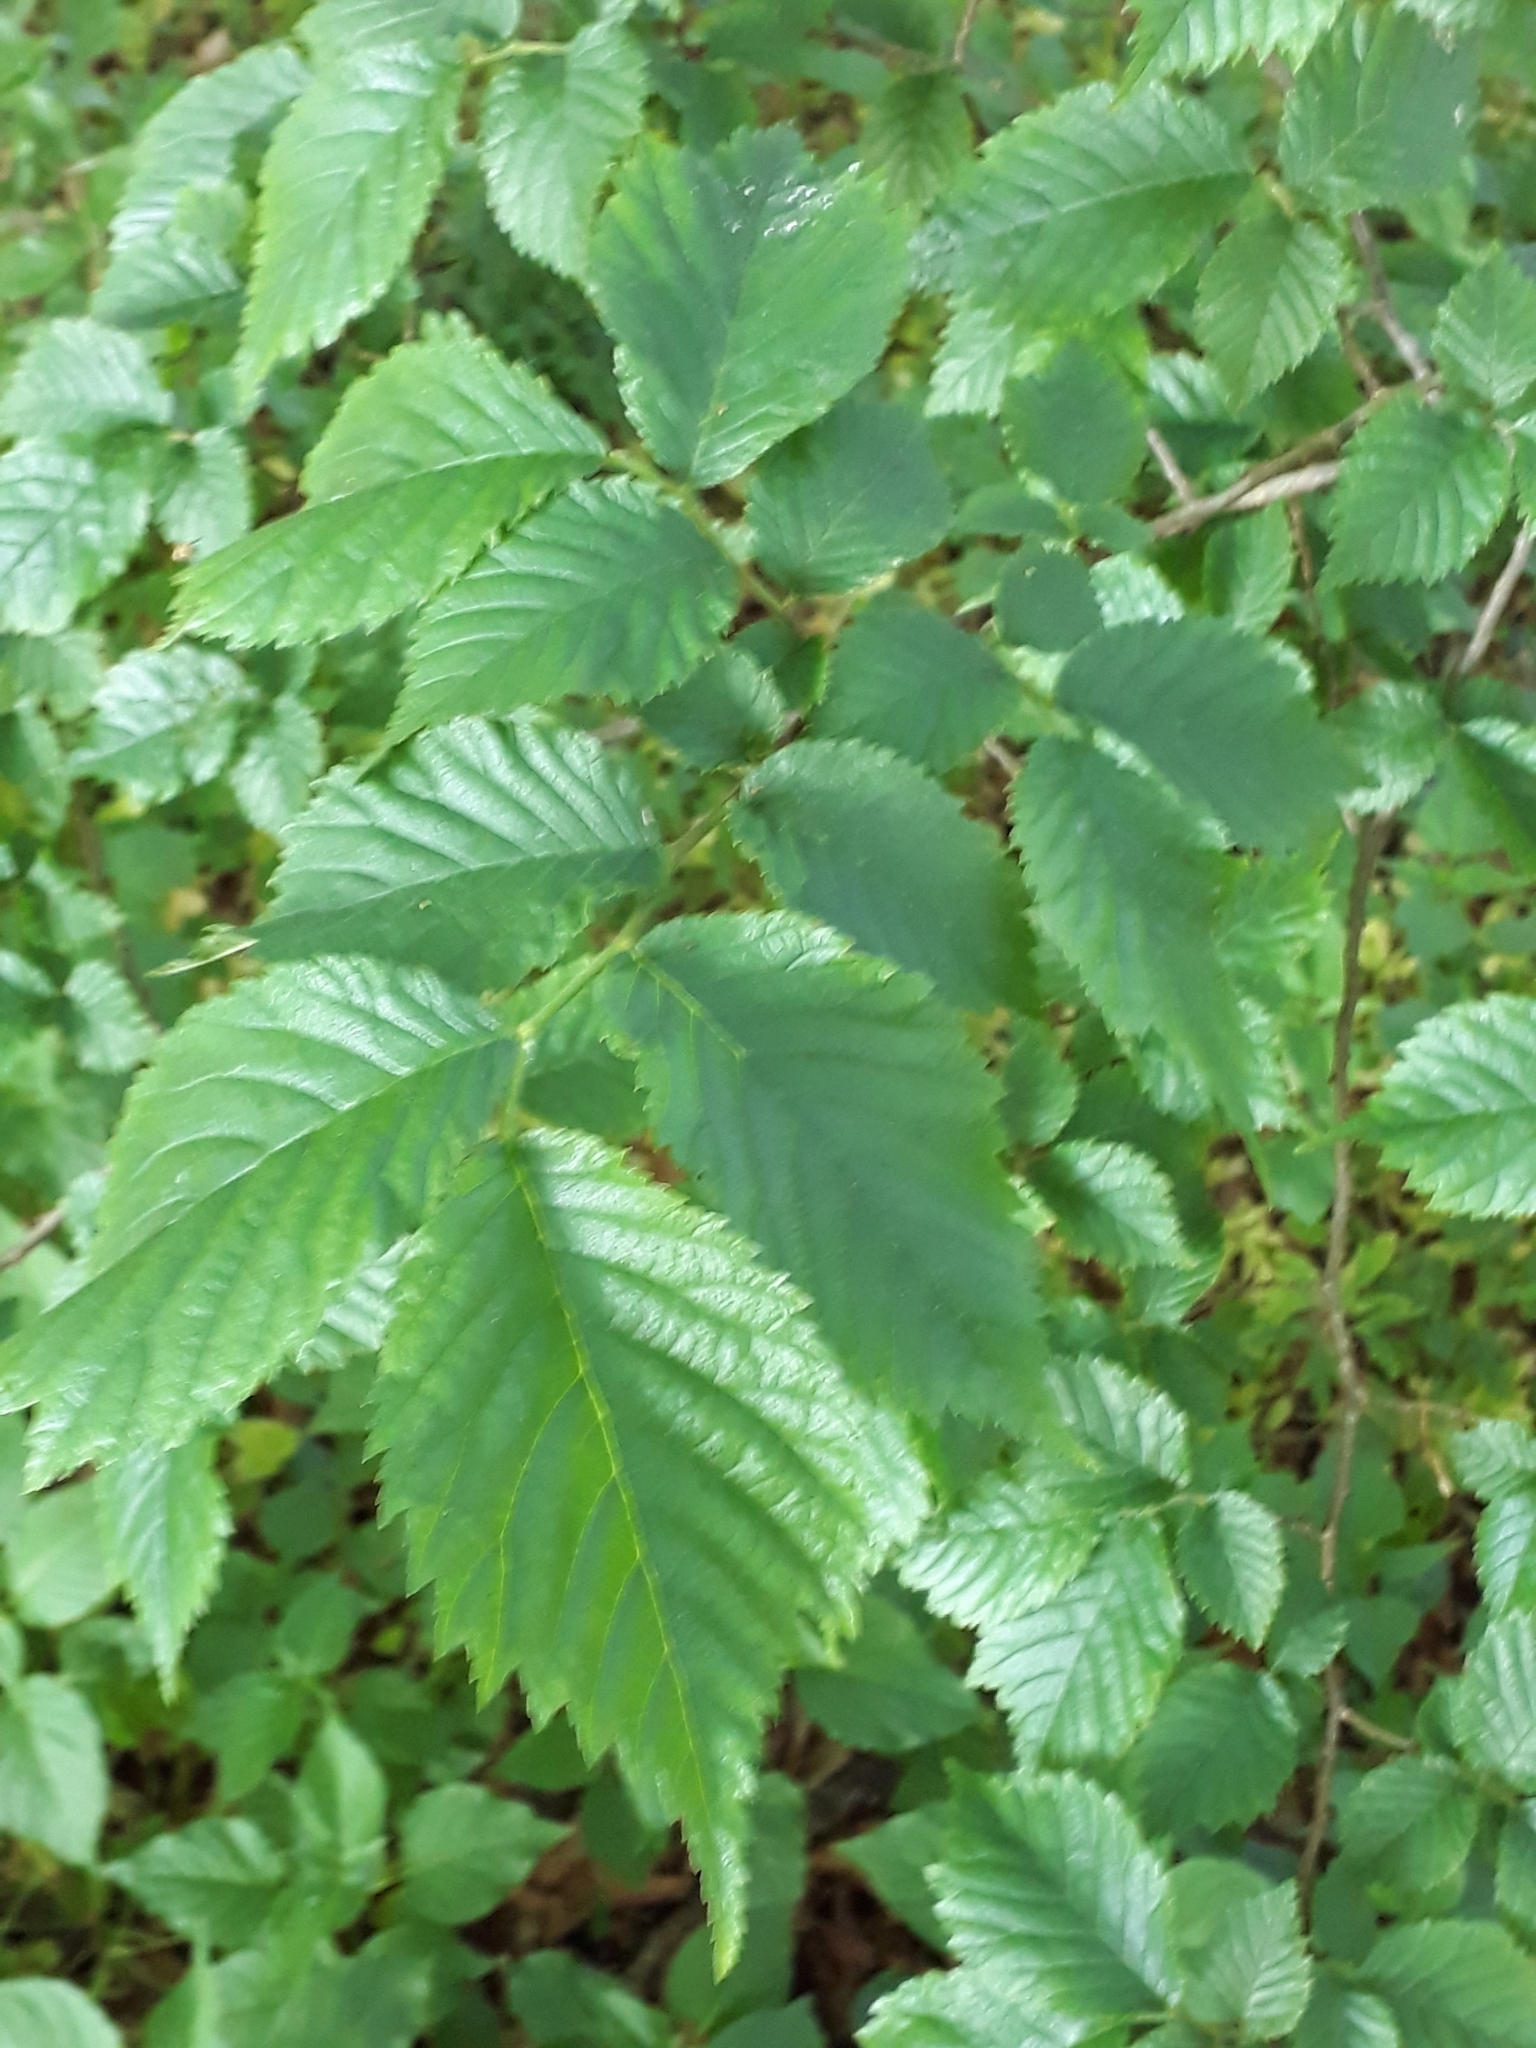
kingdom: Plantae
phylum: Tracheophyta
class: Magnoliopsida
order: Rosales
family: Ulmaceae
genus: Ulmus
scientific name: Ulmus glabra
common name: Wych elm
